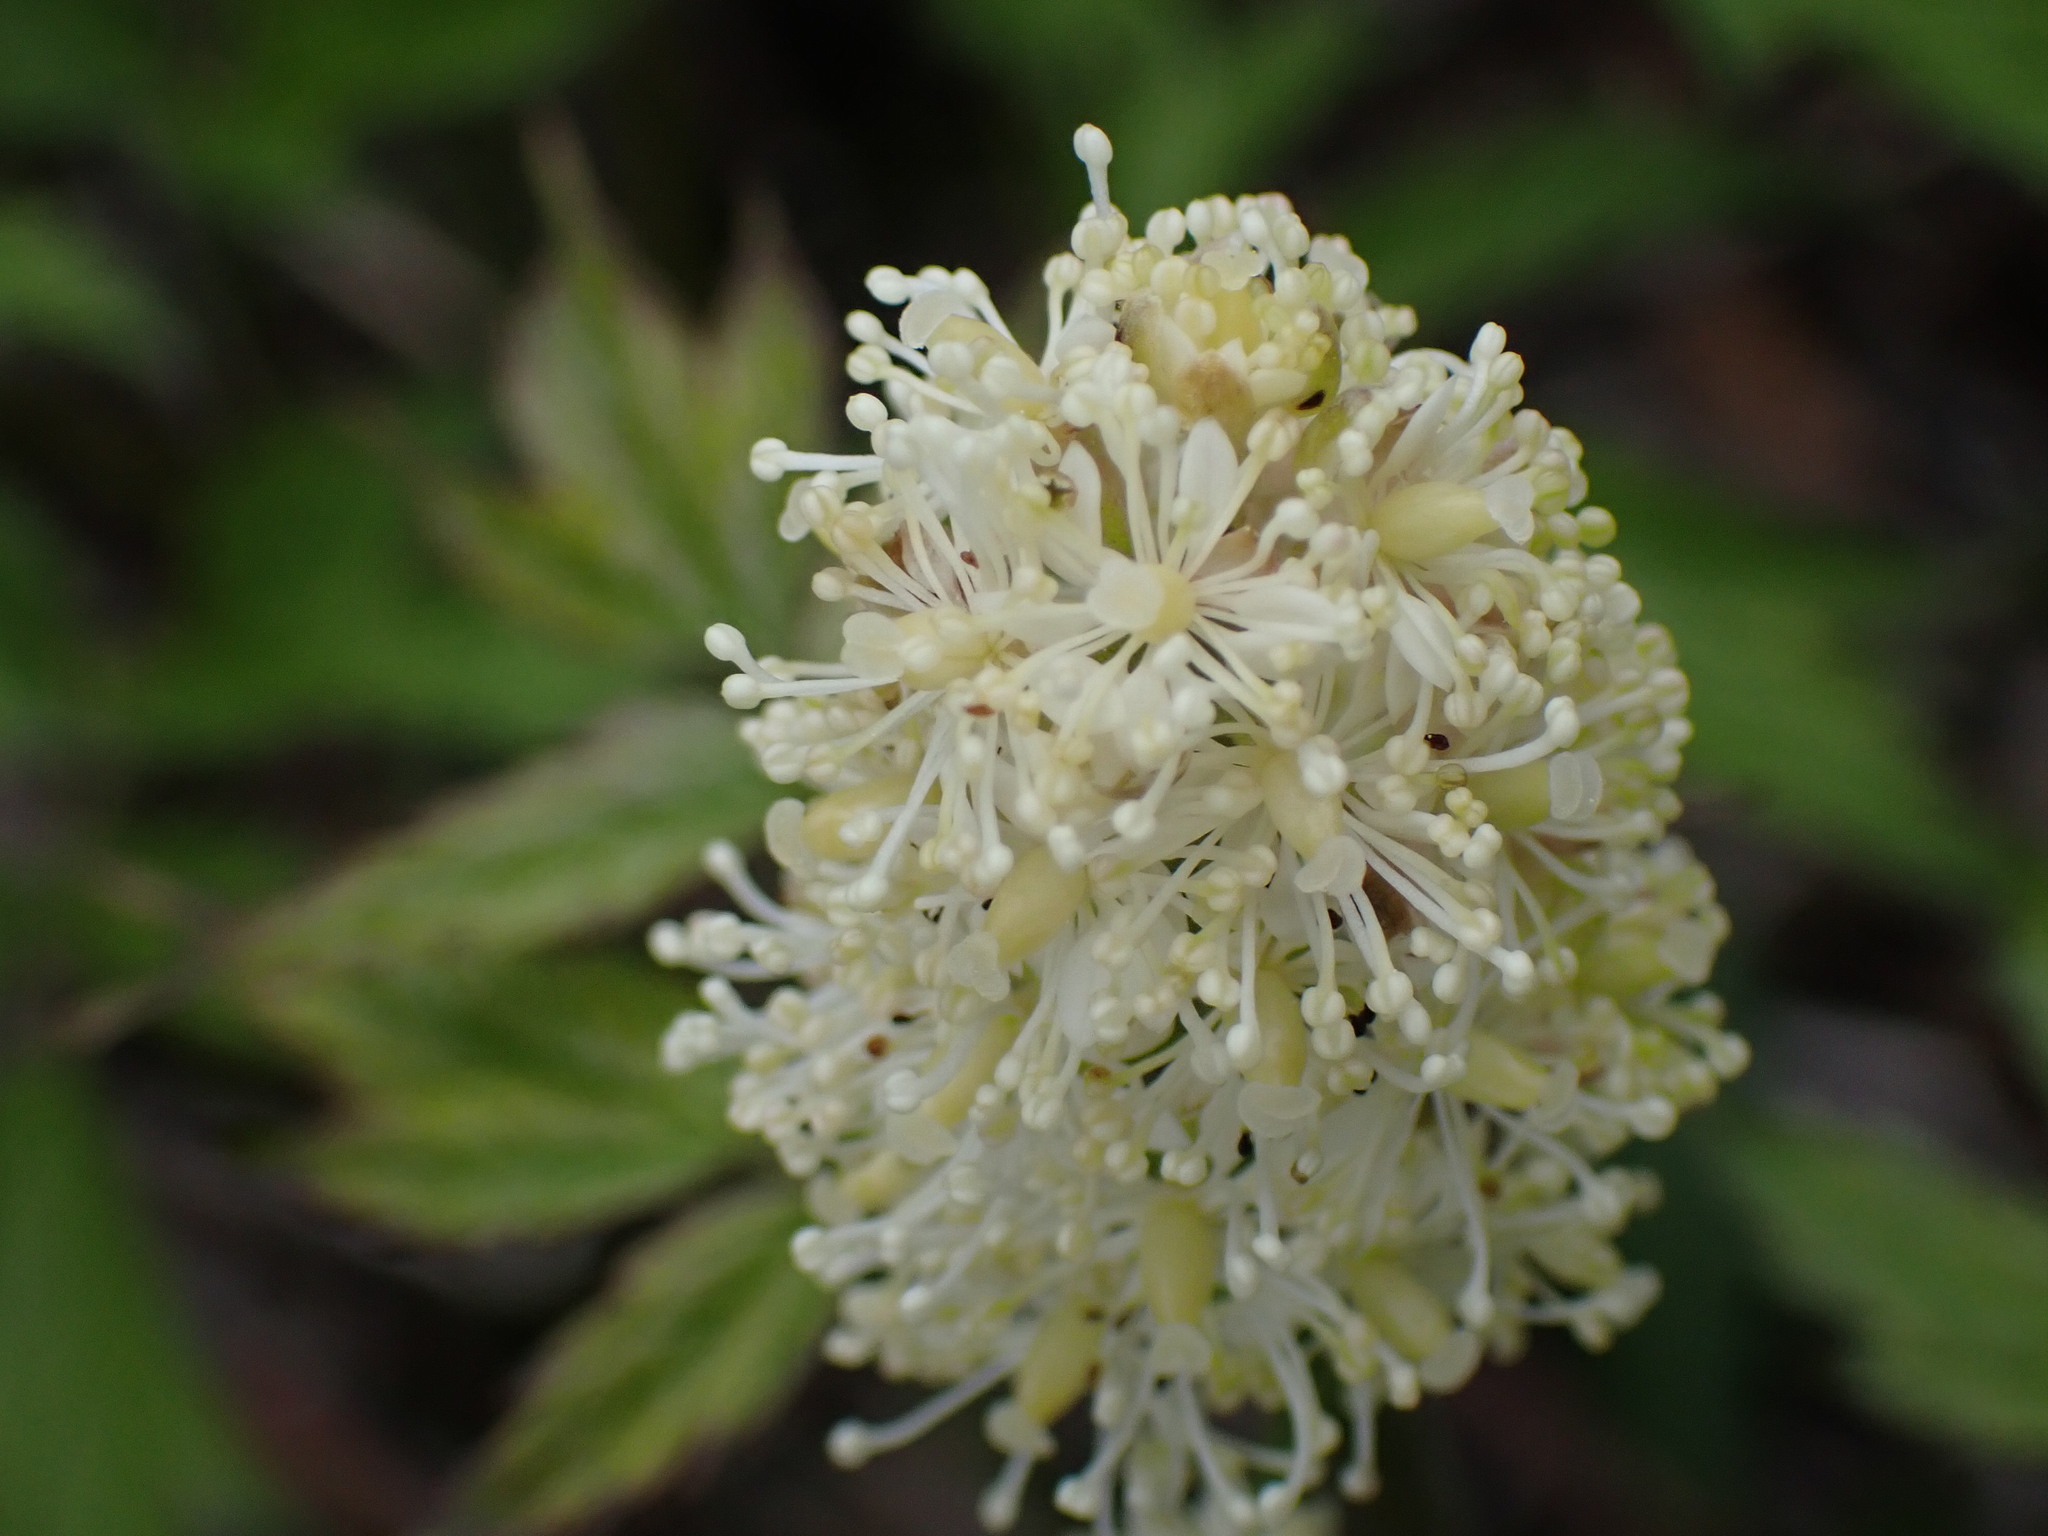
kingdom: Plantae
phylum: Tracheophyta
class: Magnoliopsida
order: Ranunculales
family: Ranunculaceae
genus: Actaea
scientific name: Actaea rubra
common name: Red baneberry
